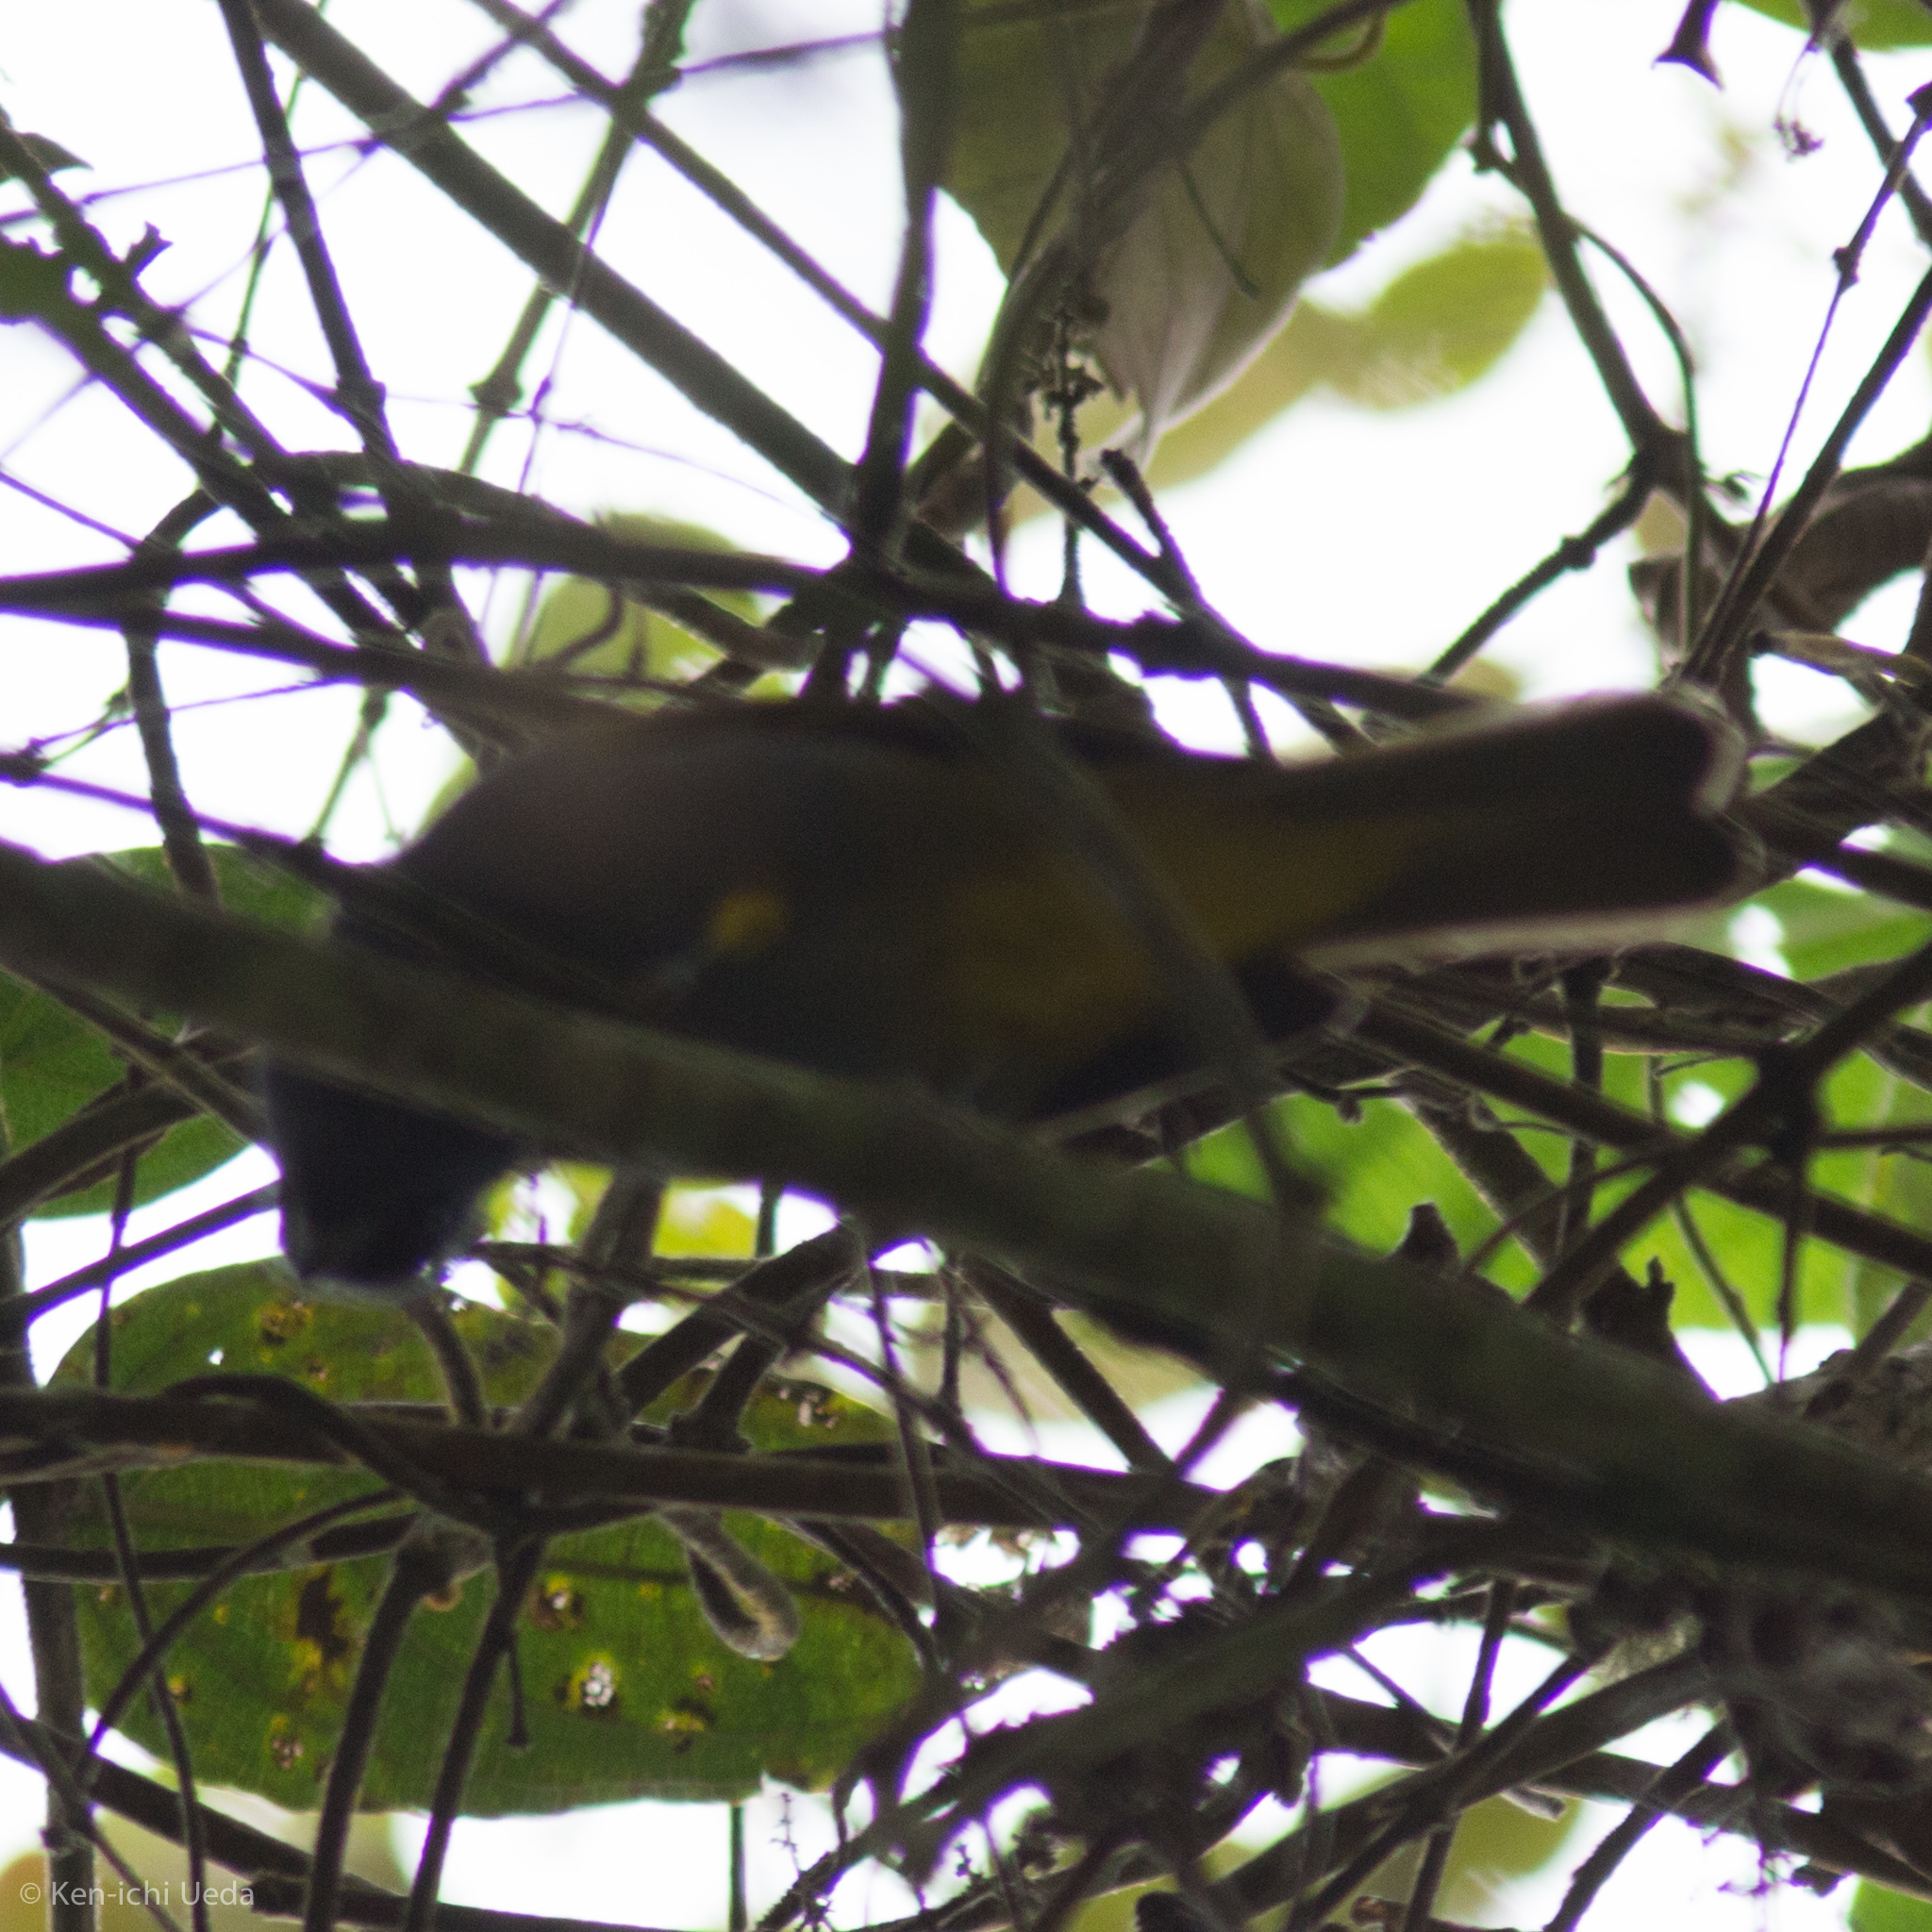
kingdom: Animalia
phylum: Chordata
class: Aves
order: Passeriformes
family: Thraupidae
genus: Sporathraupis
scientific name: Sporathraupis cyanocephala
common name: Blue-capped tanager
